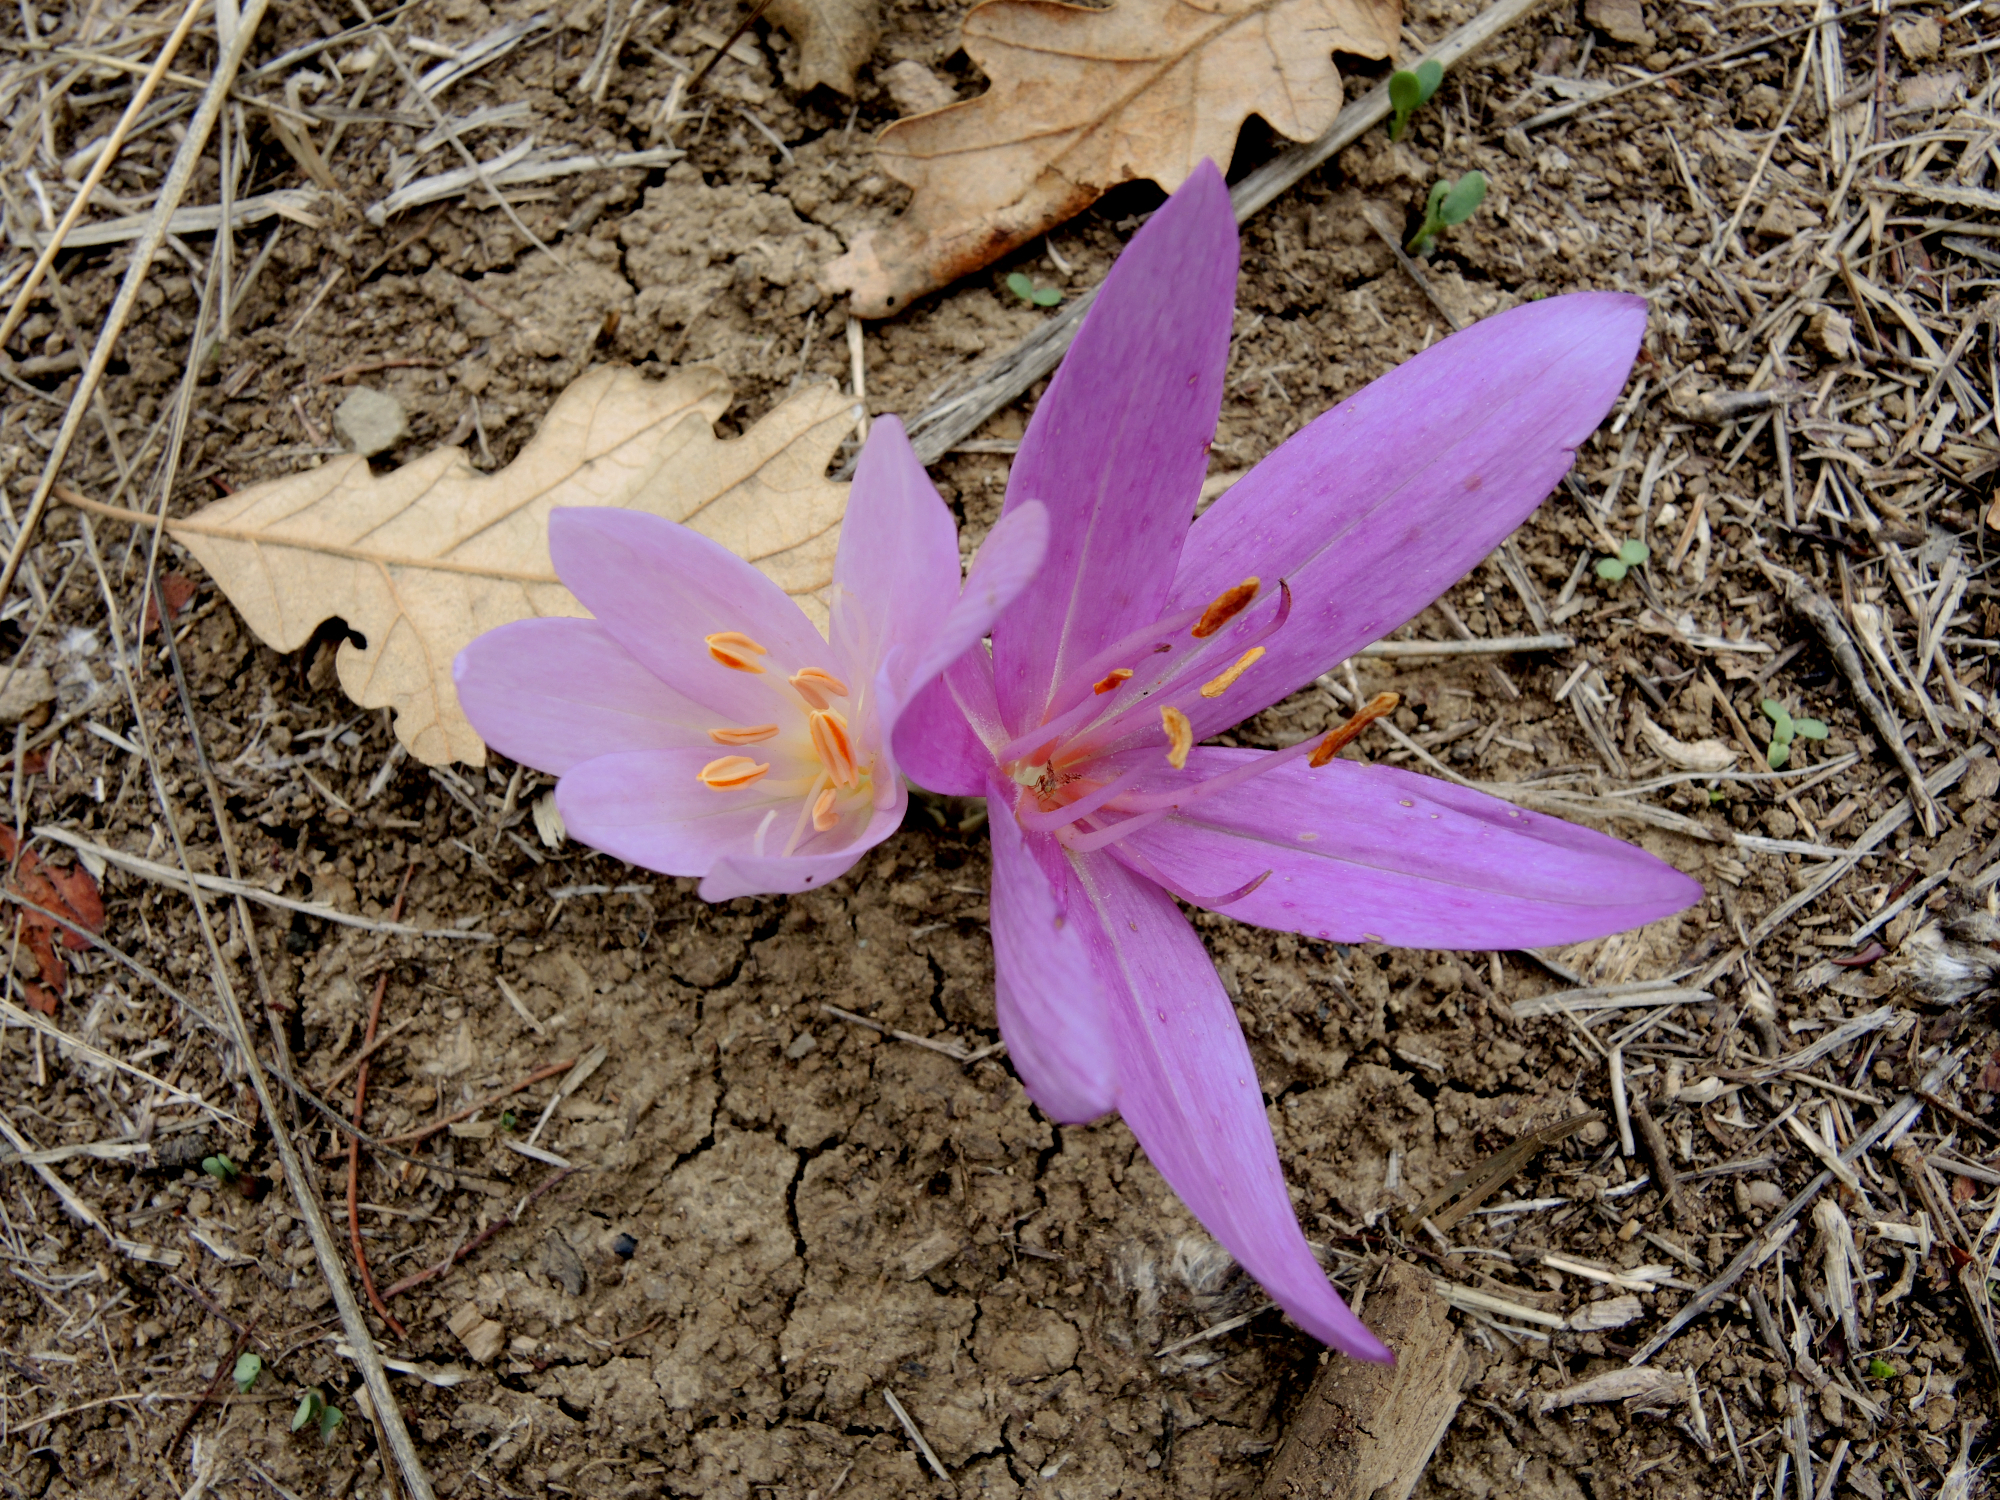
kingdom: Plantae
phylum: Tracheophyta
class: Liliopsida
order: Liliales
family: Colchicaceae
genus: Colchicum
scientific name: Colchicum autumnale
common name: Autumn crocus
